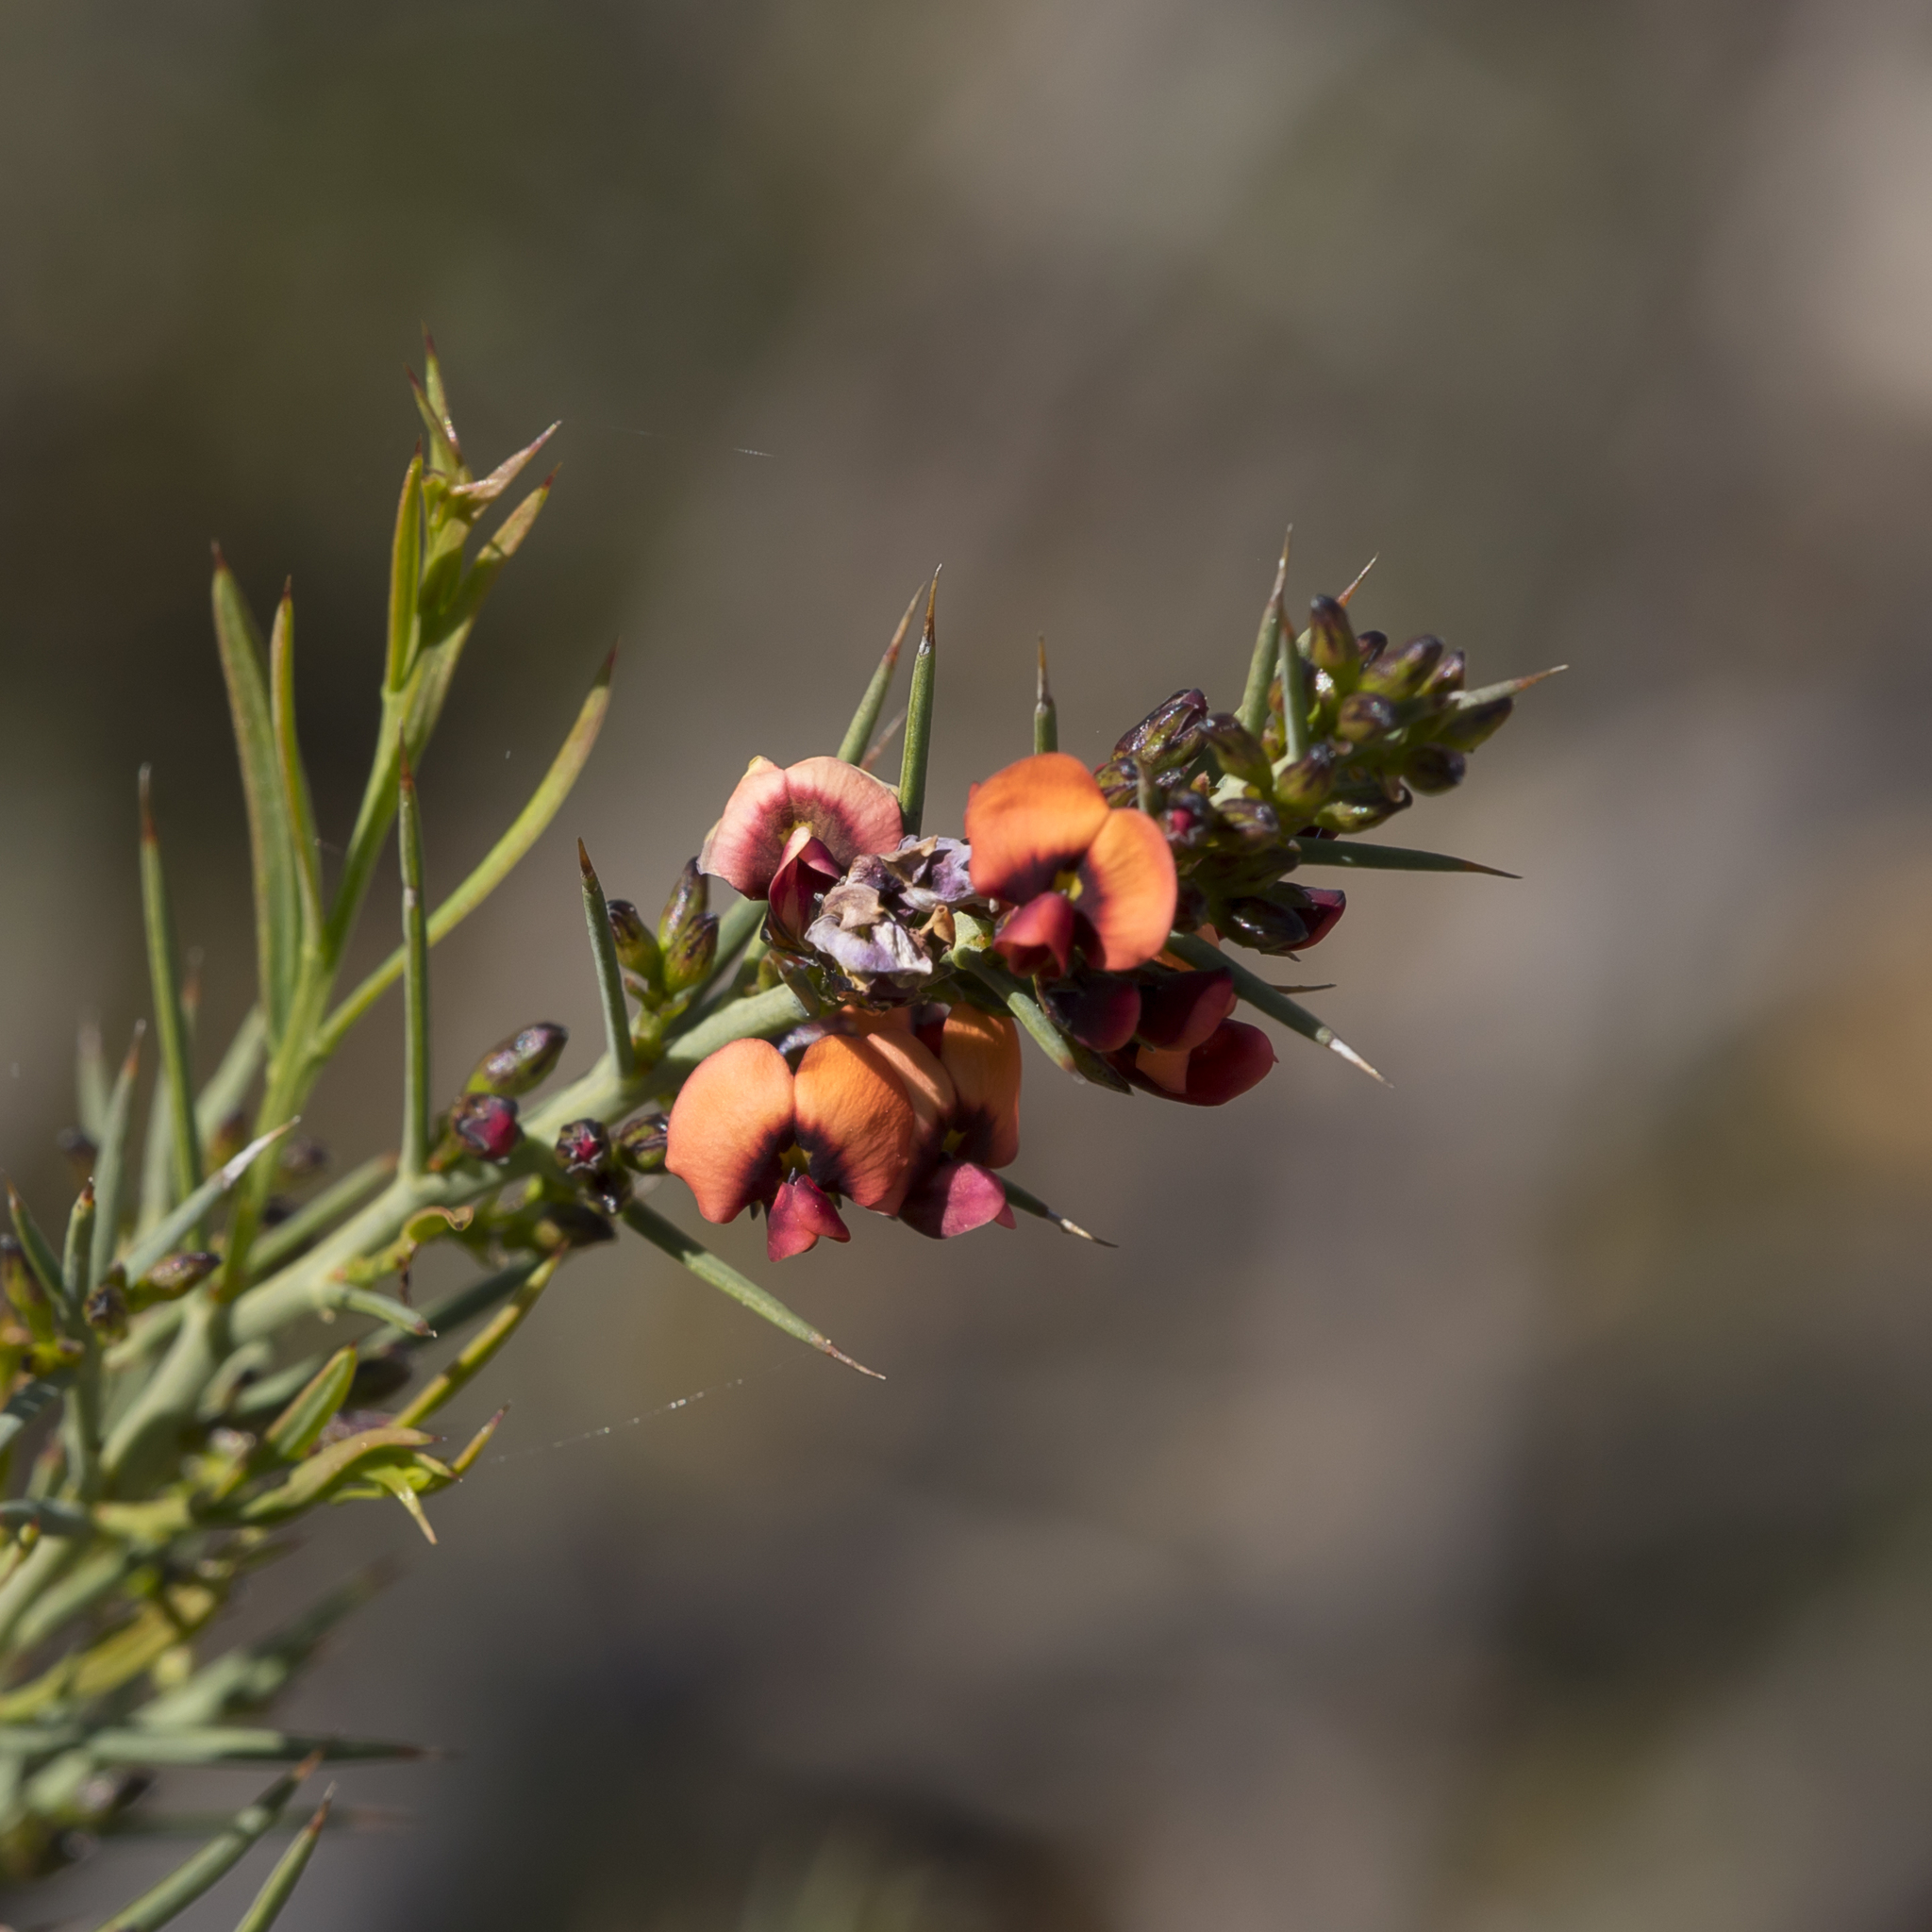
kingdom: Plantae
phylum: Tracheophyta
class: Magnoliopsida
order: Fabales
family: Fabaceae
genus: Daviesia
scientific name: Daviesia ulicifolia
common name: Gorse bitter-pea
